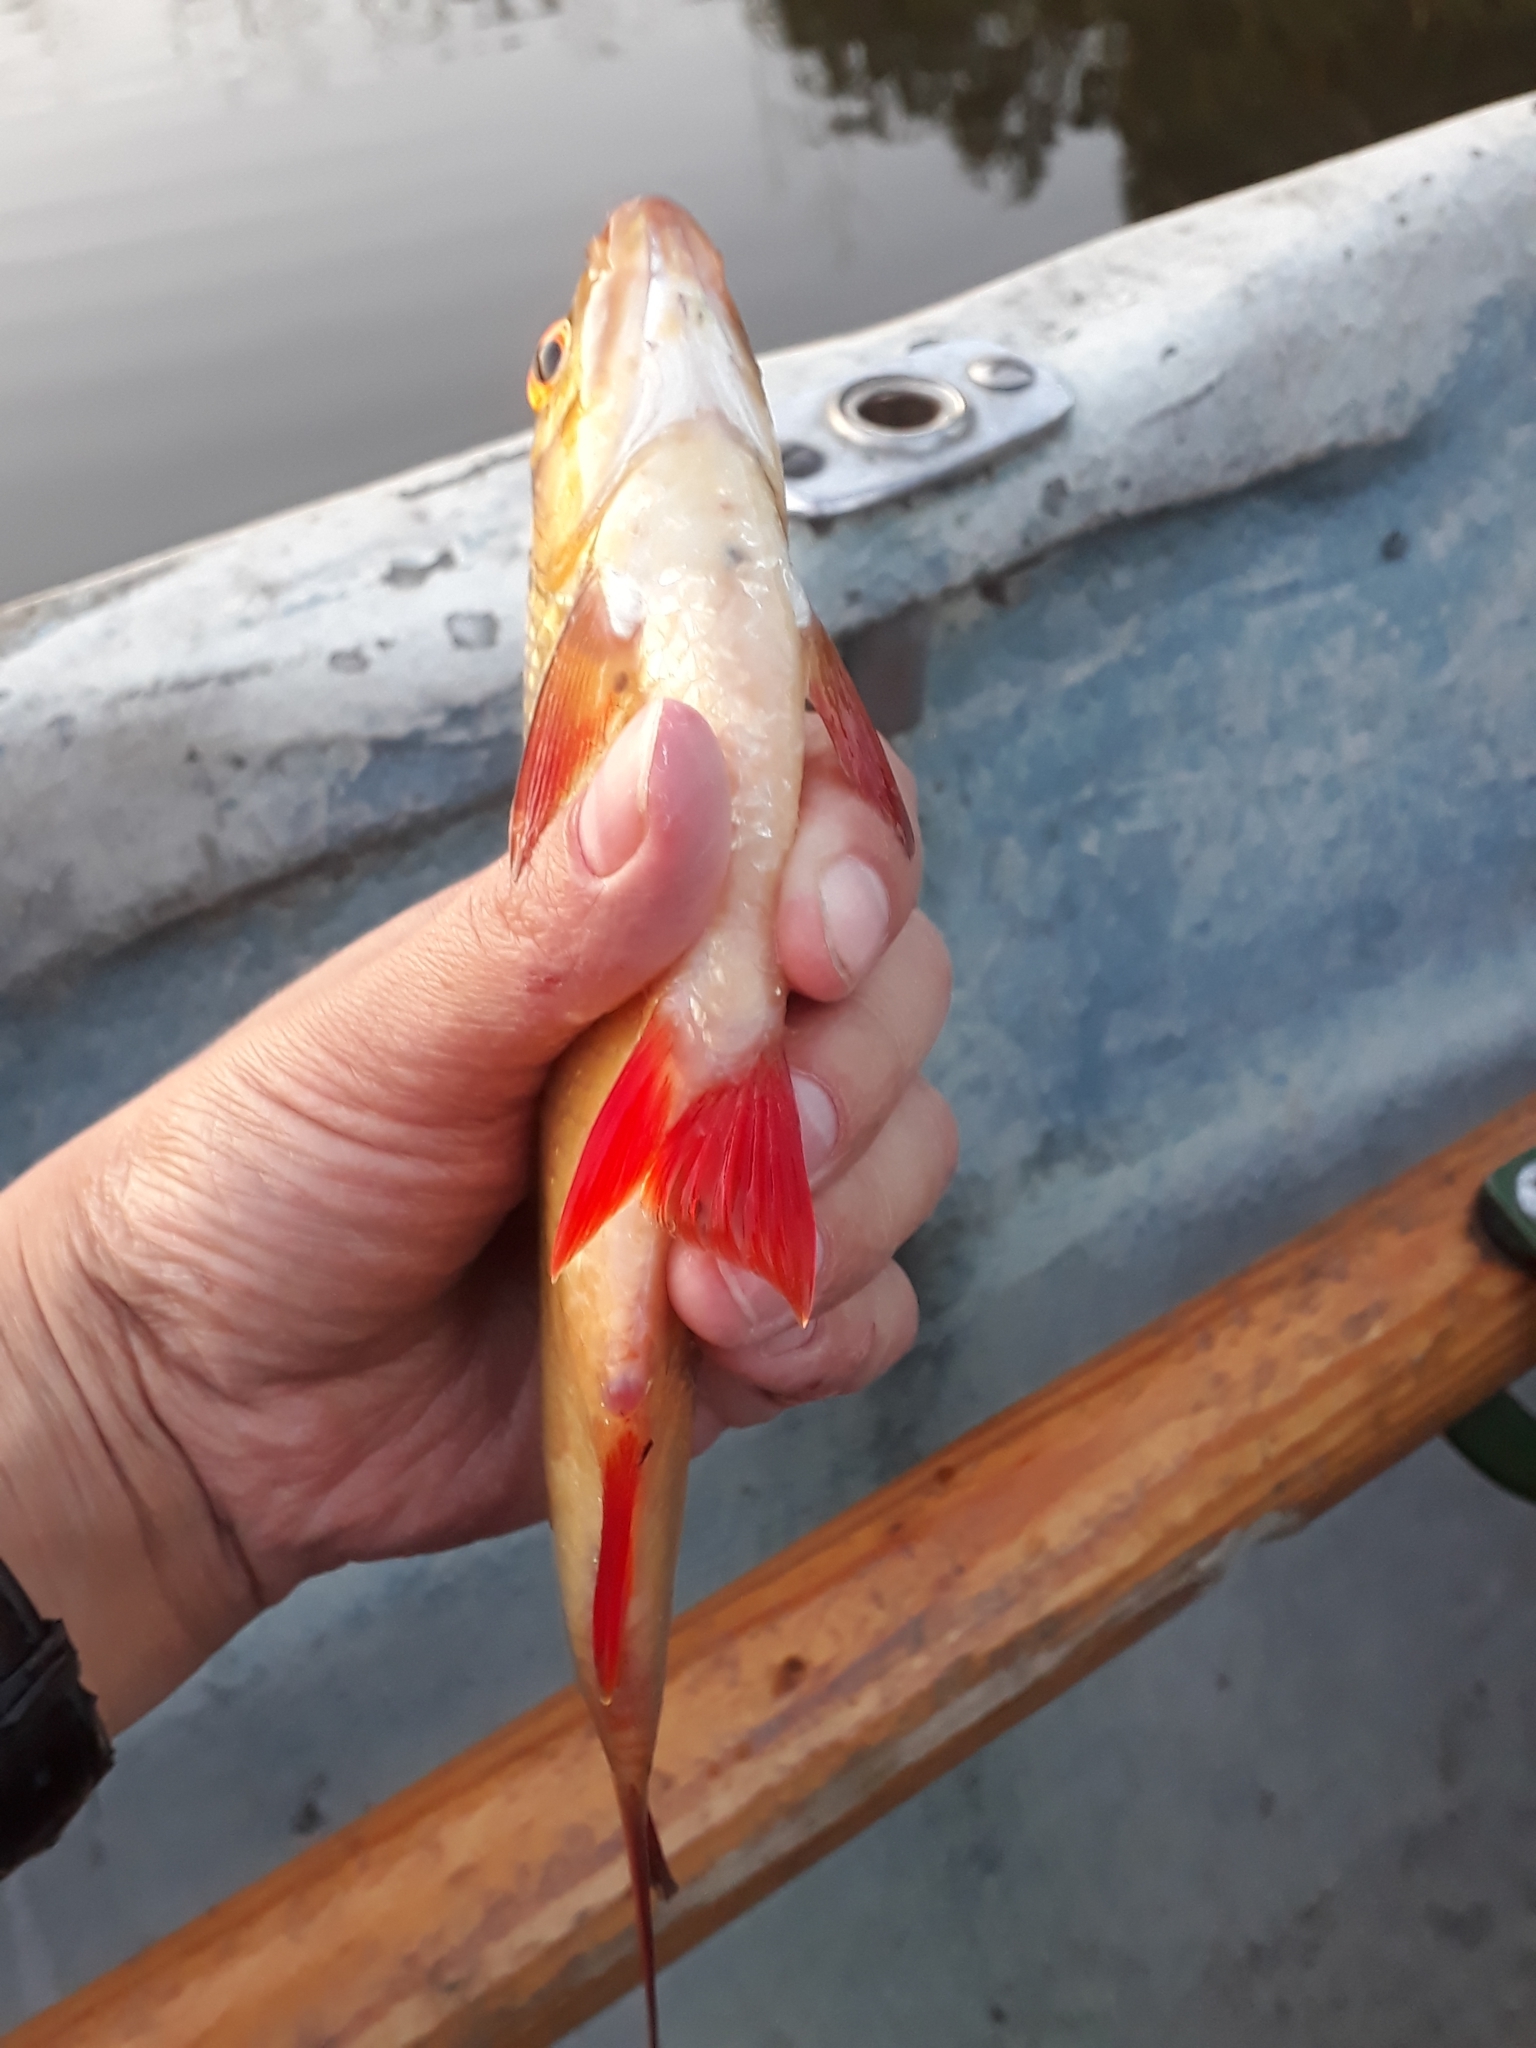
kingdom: Animalia
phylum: Chordata
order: Cypriniformes
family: Cyprinidae
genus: Scardinius
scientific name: Scardinius erythrophthalmus
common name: Rudd
